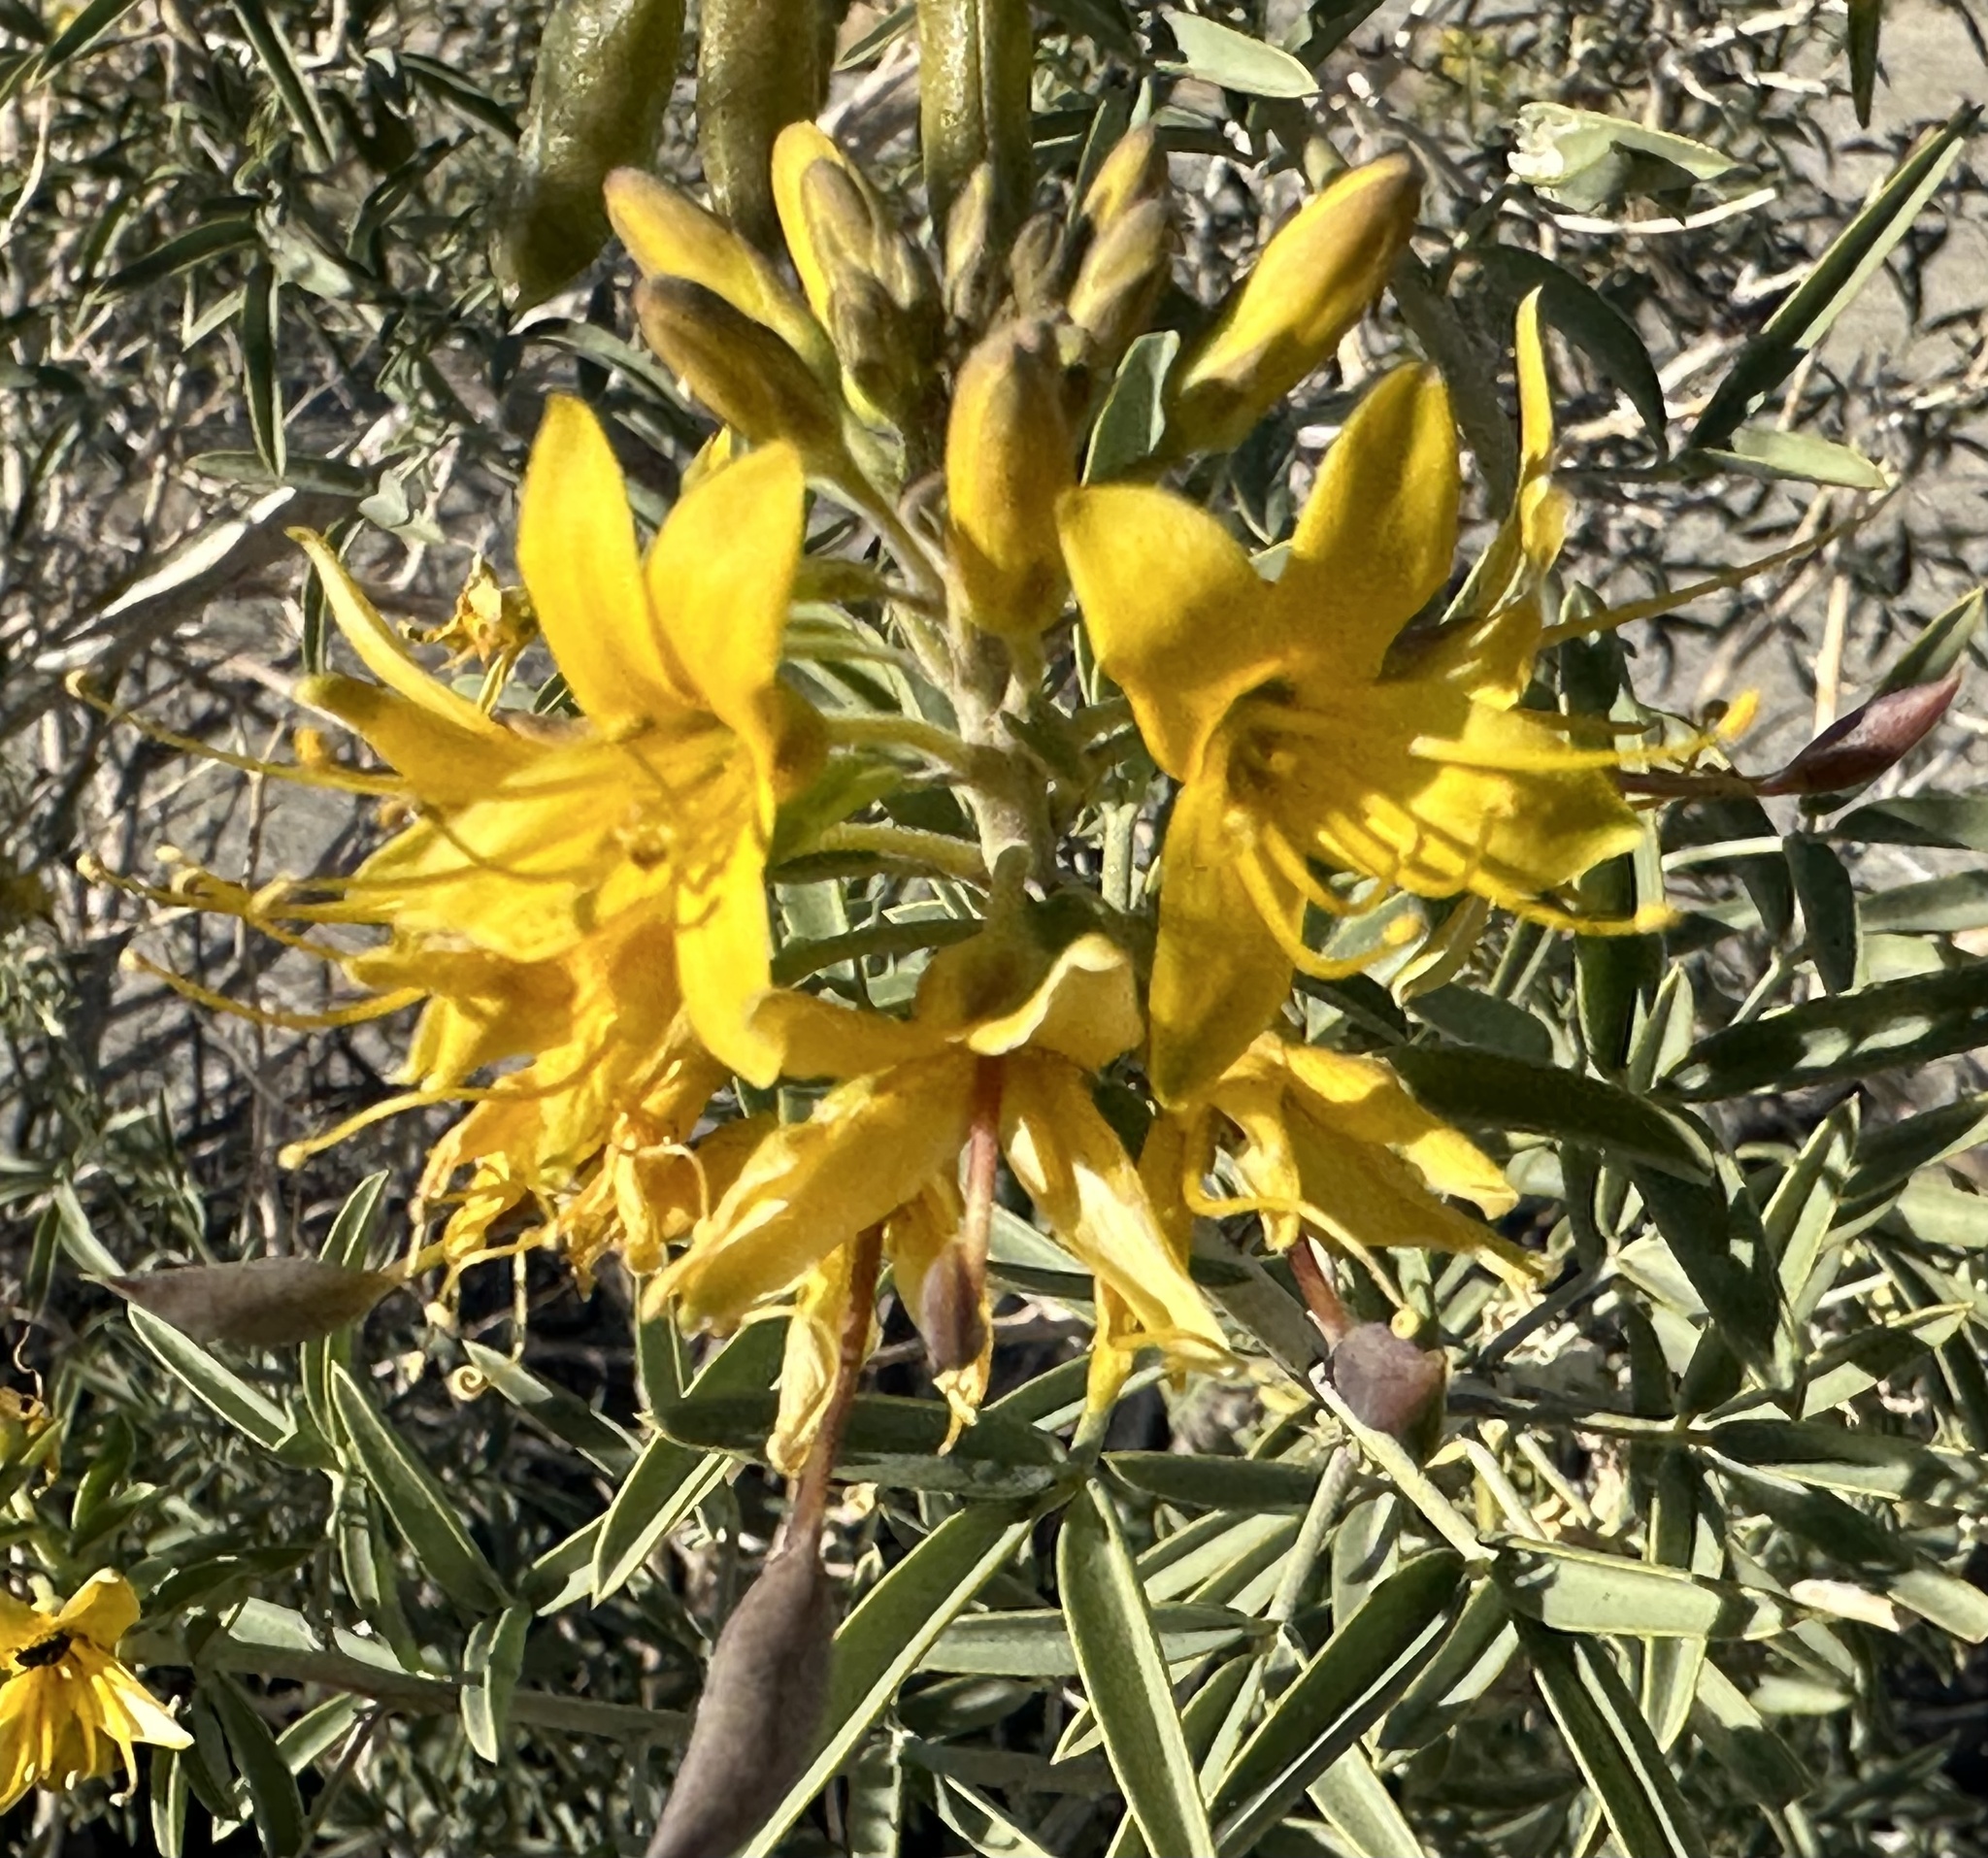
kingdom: Plantae
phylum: Tracheophyta
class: Magnoliopsida
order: Brassicales
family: Cleomaceae
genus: Cleomella
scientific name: Cleomella arborea
